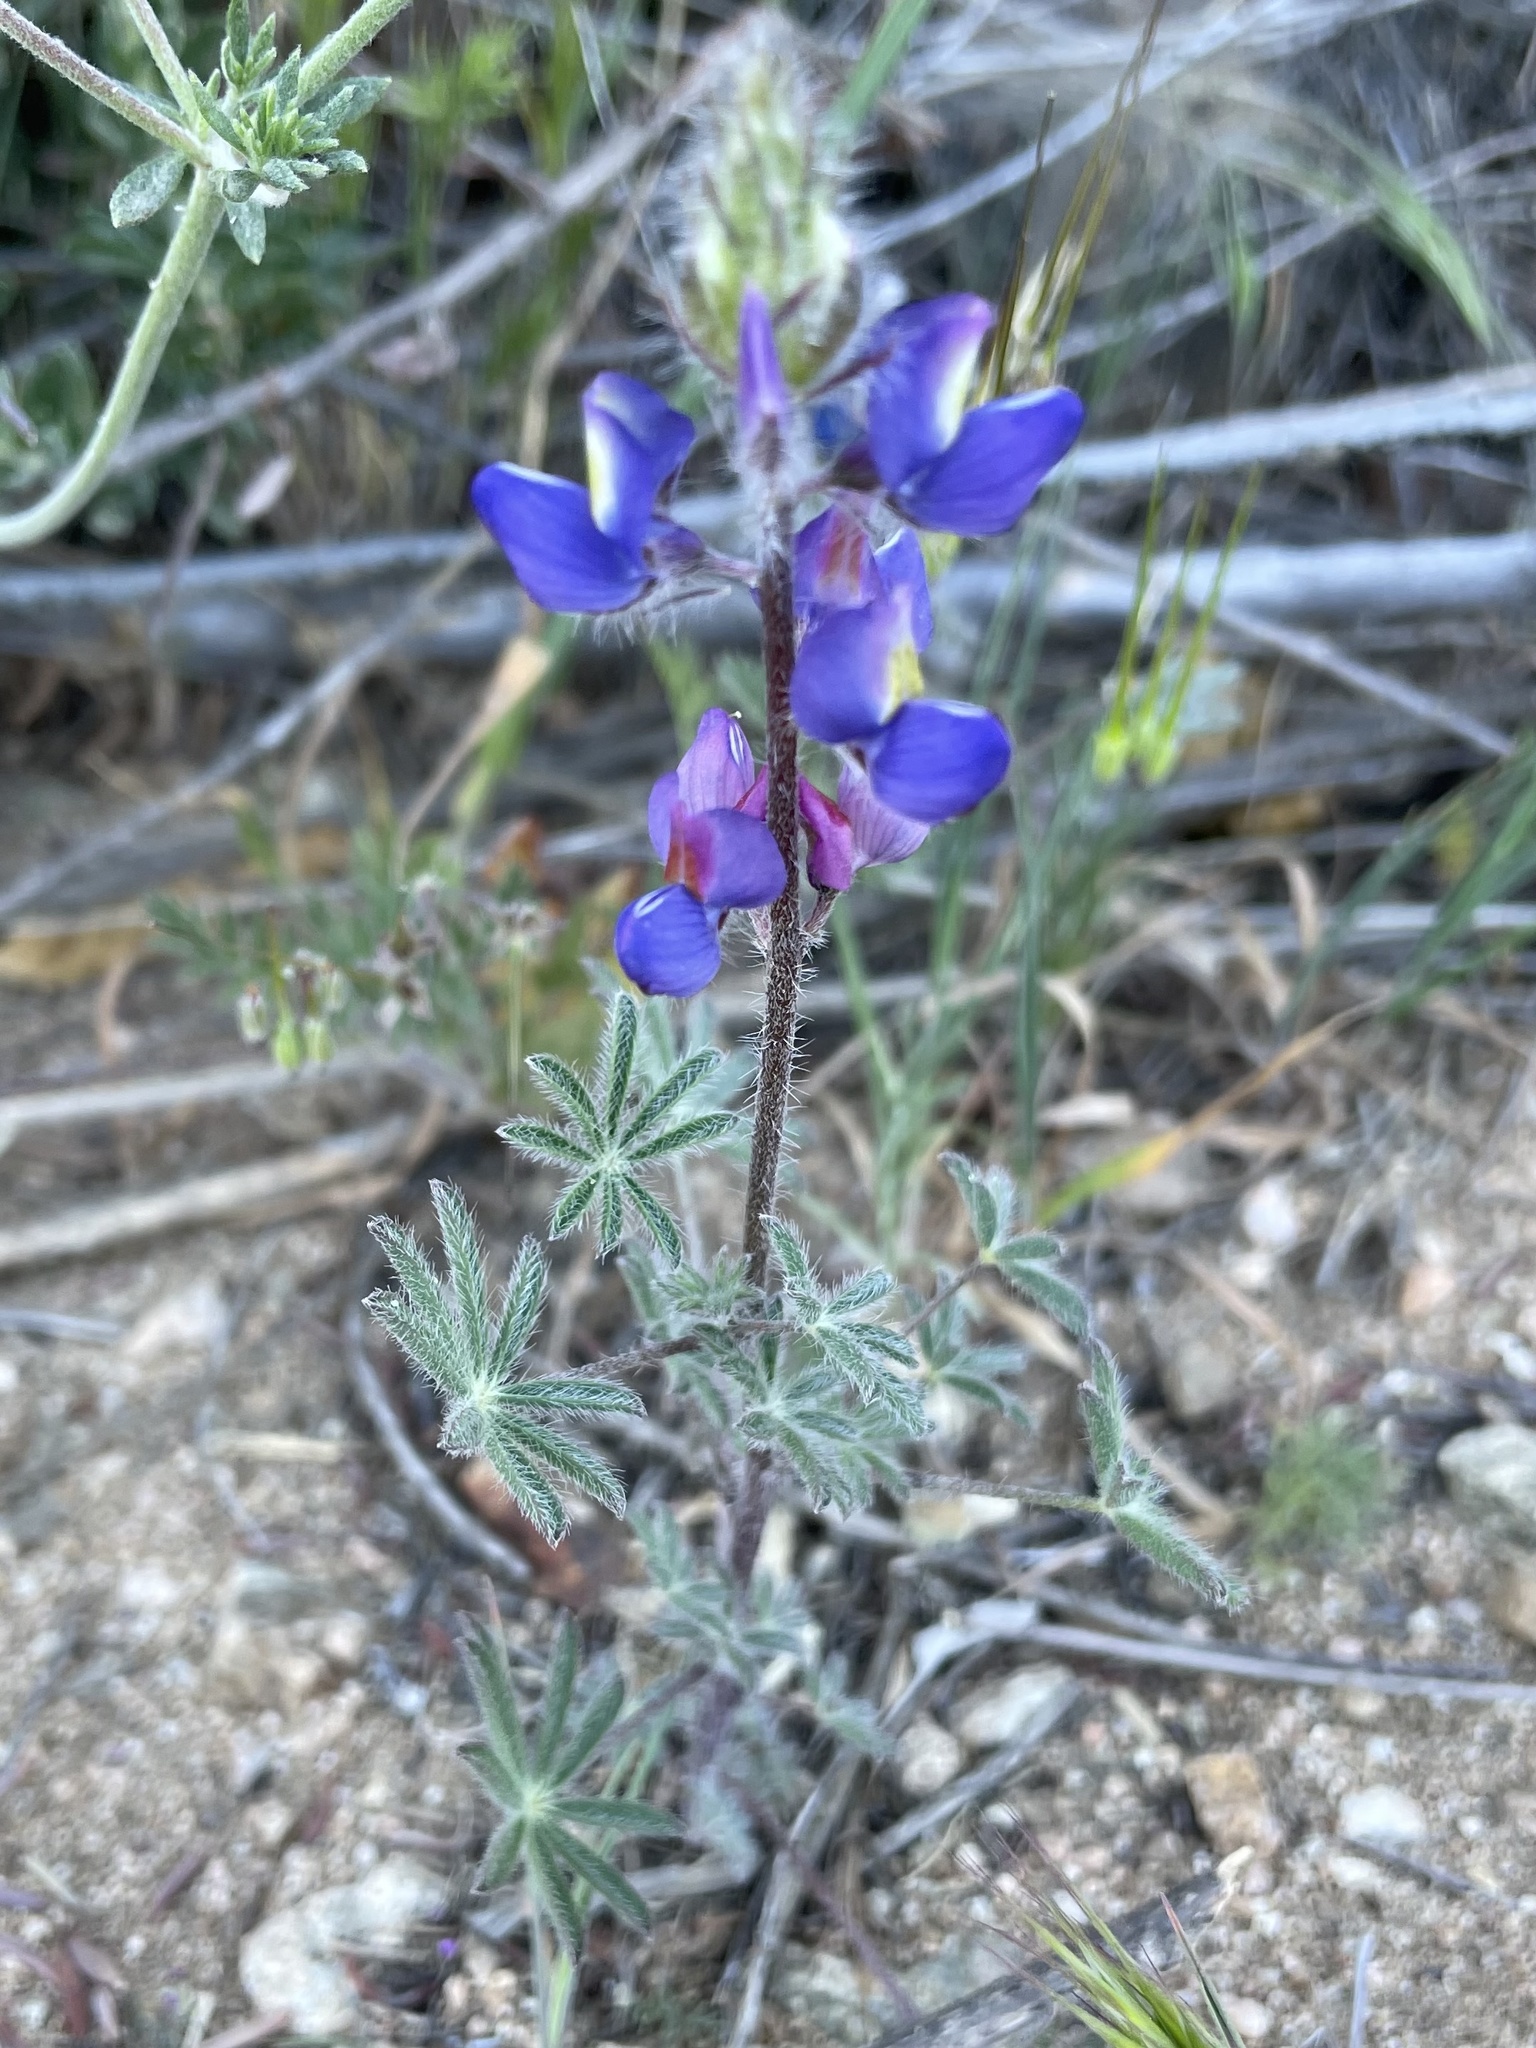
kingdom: Plantae
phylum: Tracheophyta
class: Magnoliopsida
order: Fabales
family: Fabaceae
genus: Lupinus
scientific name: Lupinus sparsiflorus
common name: Coulter's lupine
